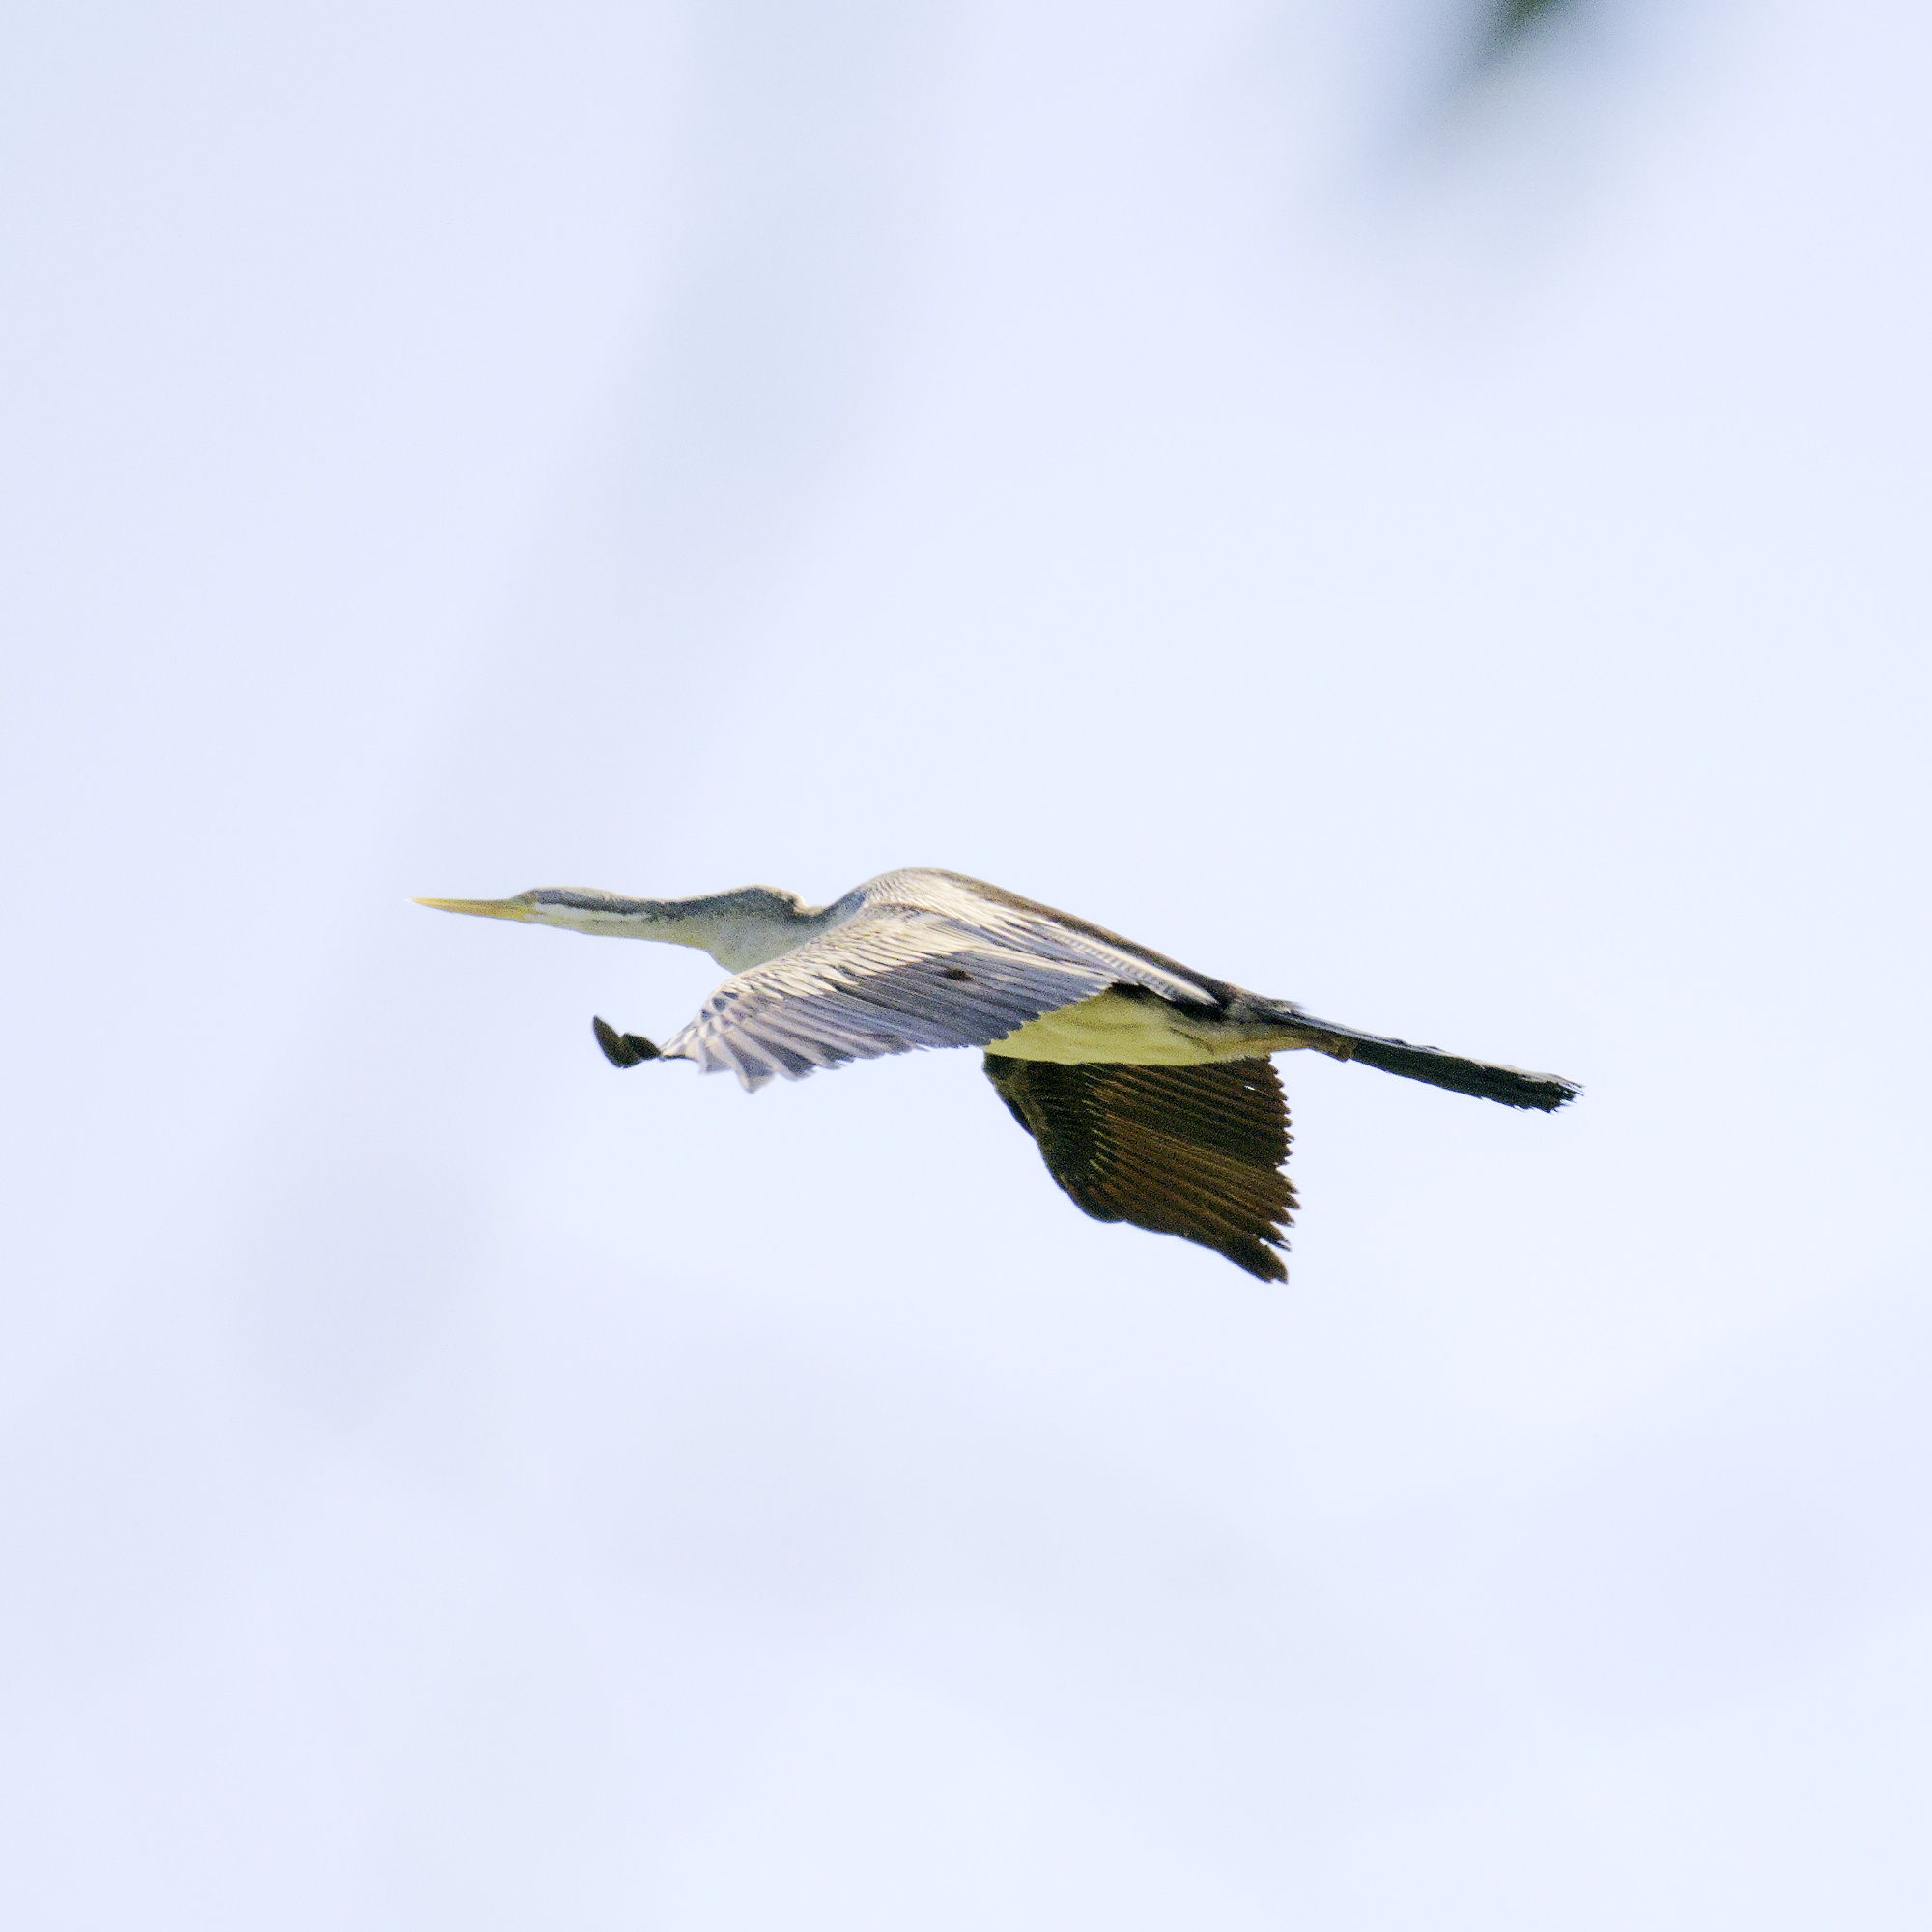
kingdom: Animalia
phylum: Chordata
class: Aves
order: Suliformes
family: Anhingidae
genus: Anhinga
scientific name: Anhinga novaehollandiae
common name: Australasian darter
